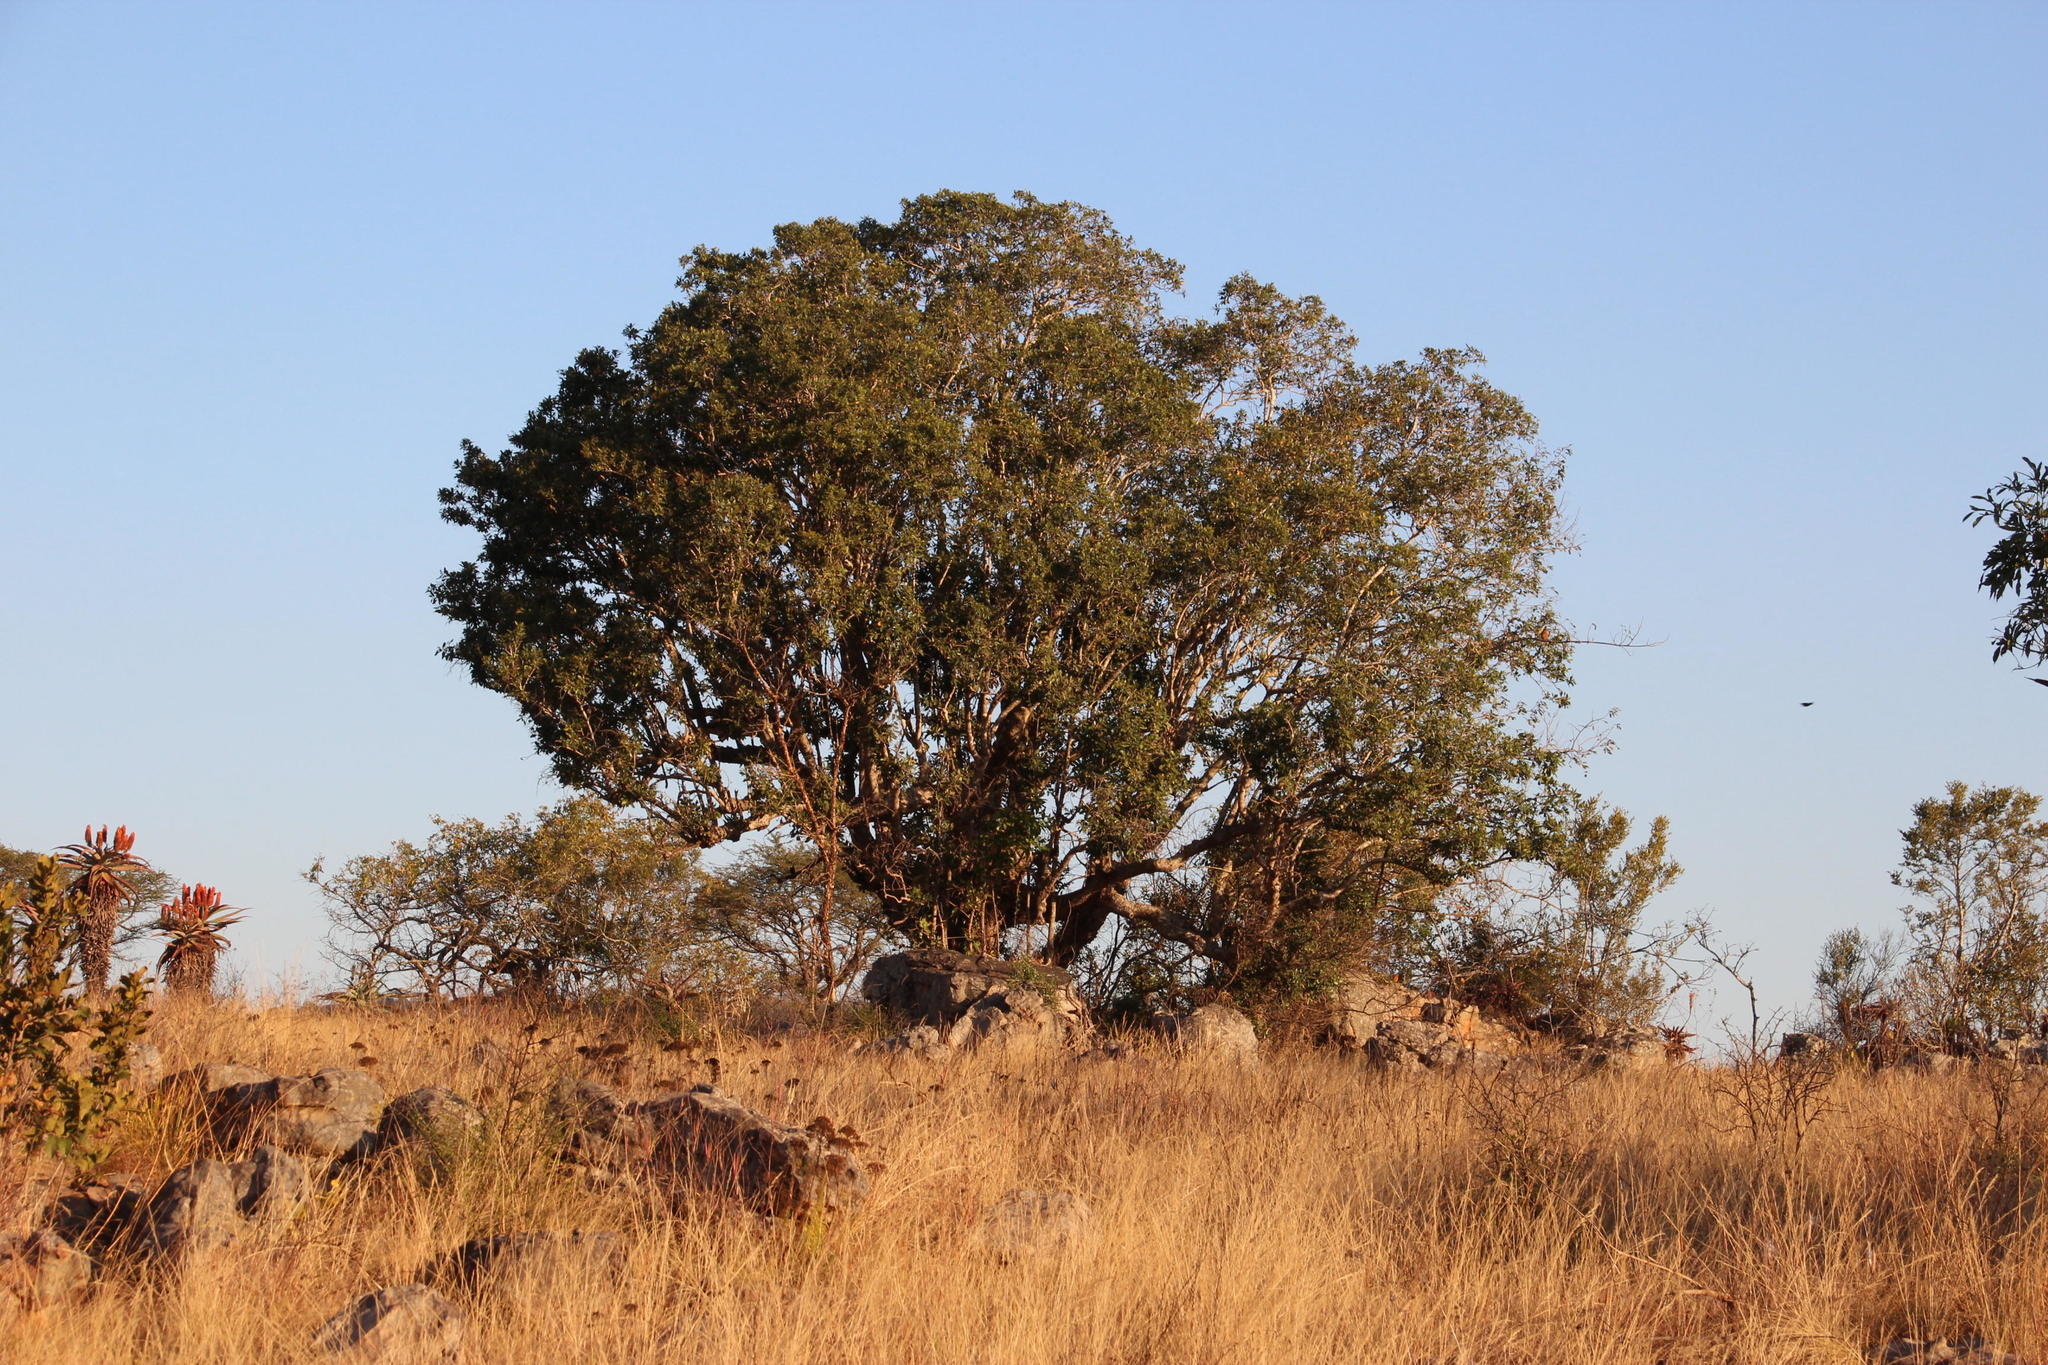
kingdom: Plantae
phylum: Tracheophyta
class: Magnoliopsida
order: Rosales
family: Moraceae
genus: Ficus
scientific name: Ficus ingens
